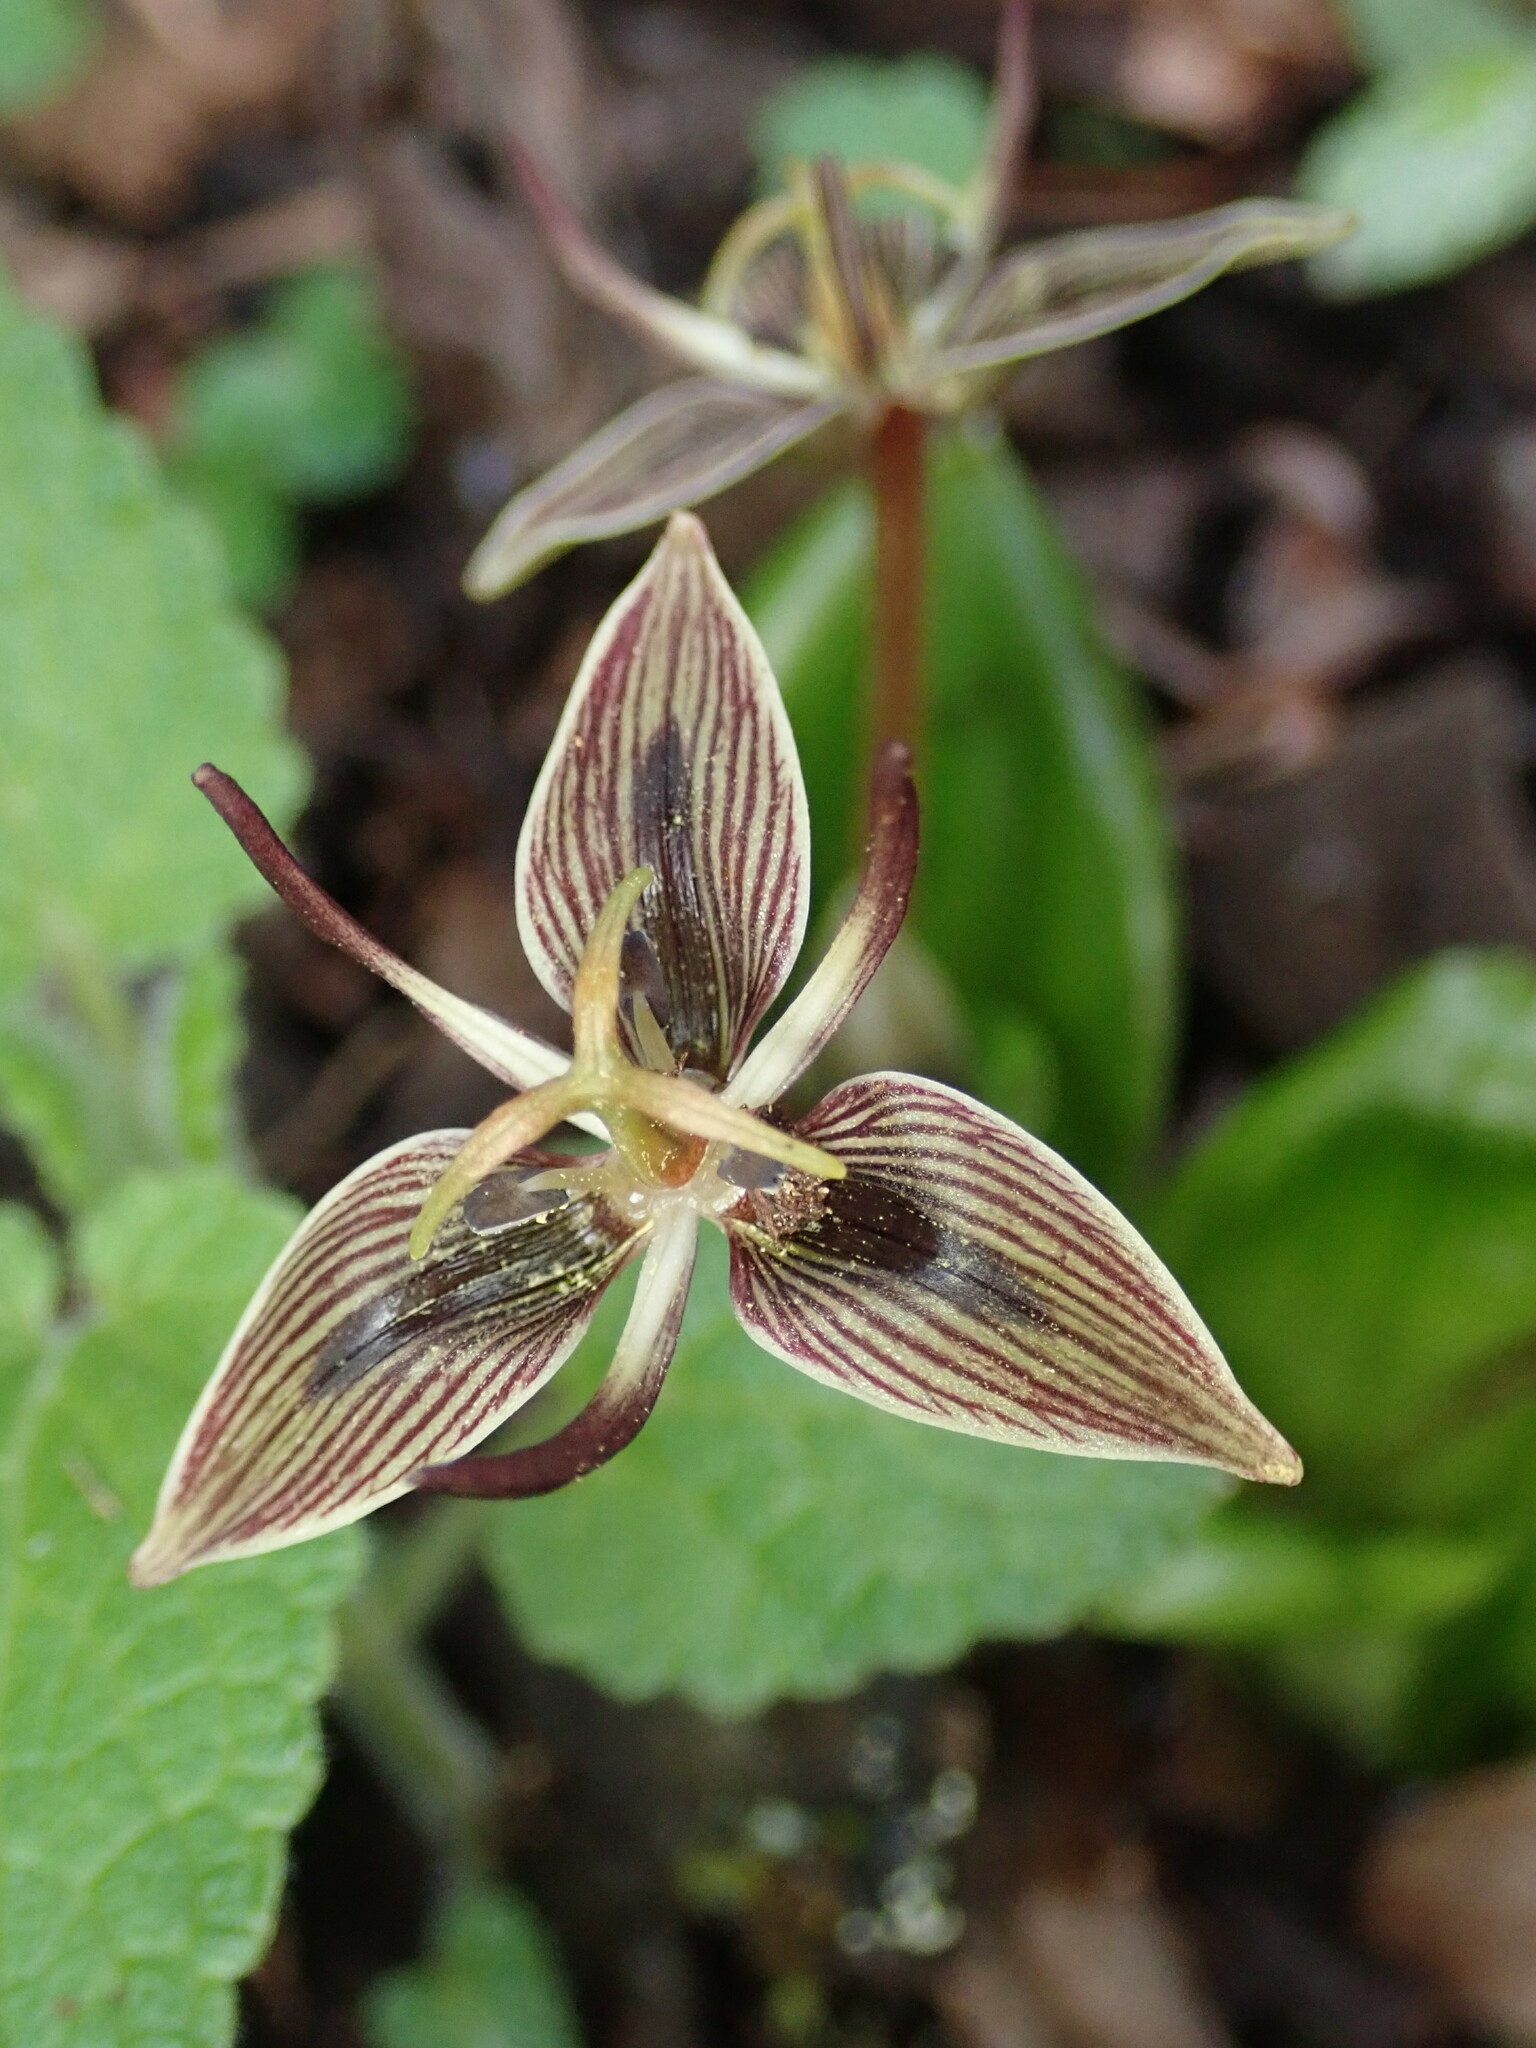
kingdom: Plantae
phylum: Tracheophyta
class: Liliopsida
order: Liliales
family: Liliaceae
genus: Scoliopus
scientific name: Scoliopus bigelovii
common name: Foetid adder's-tongue
